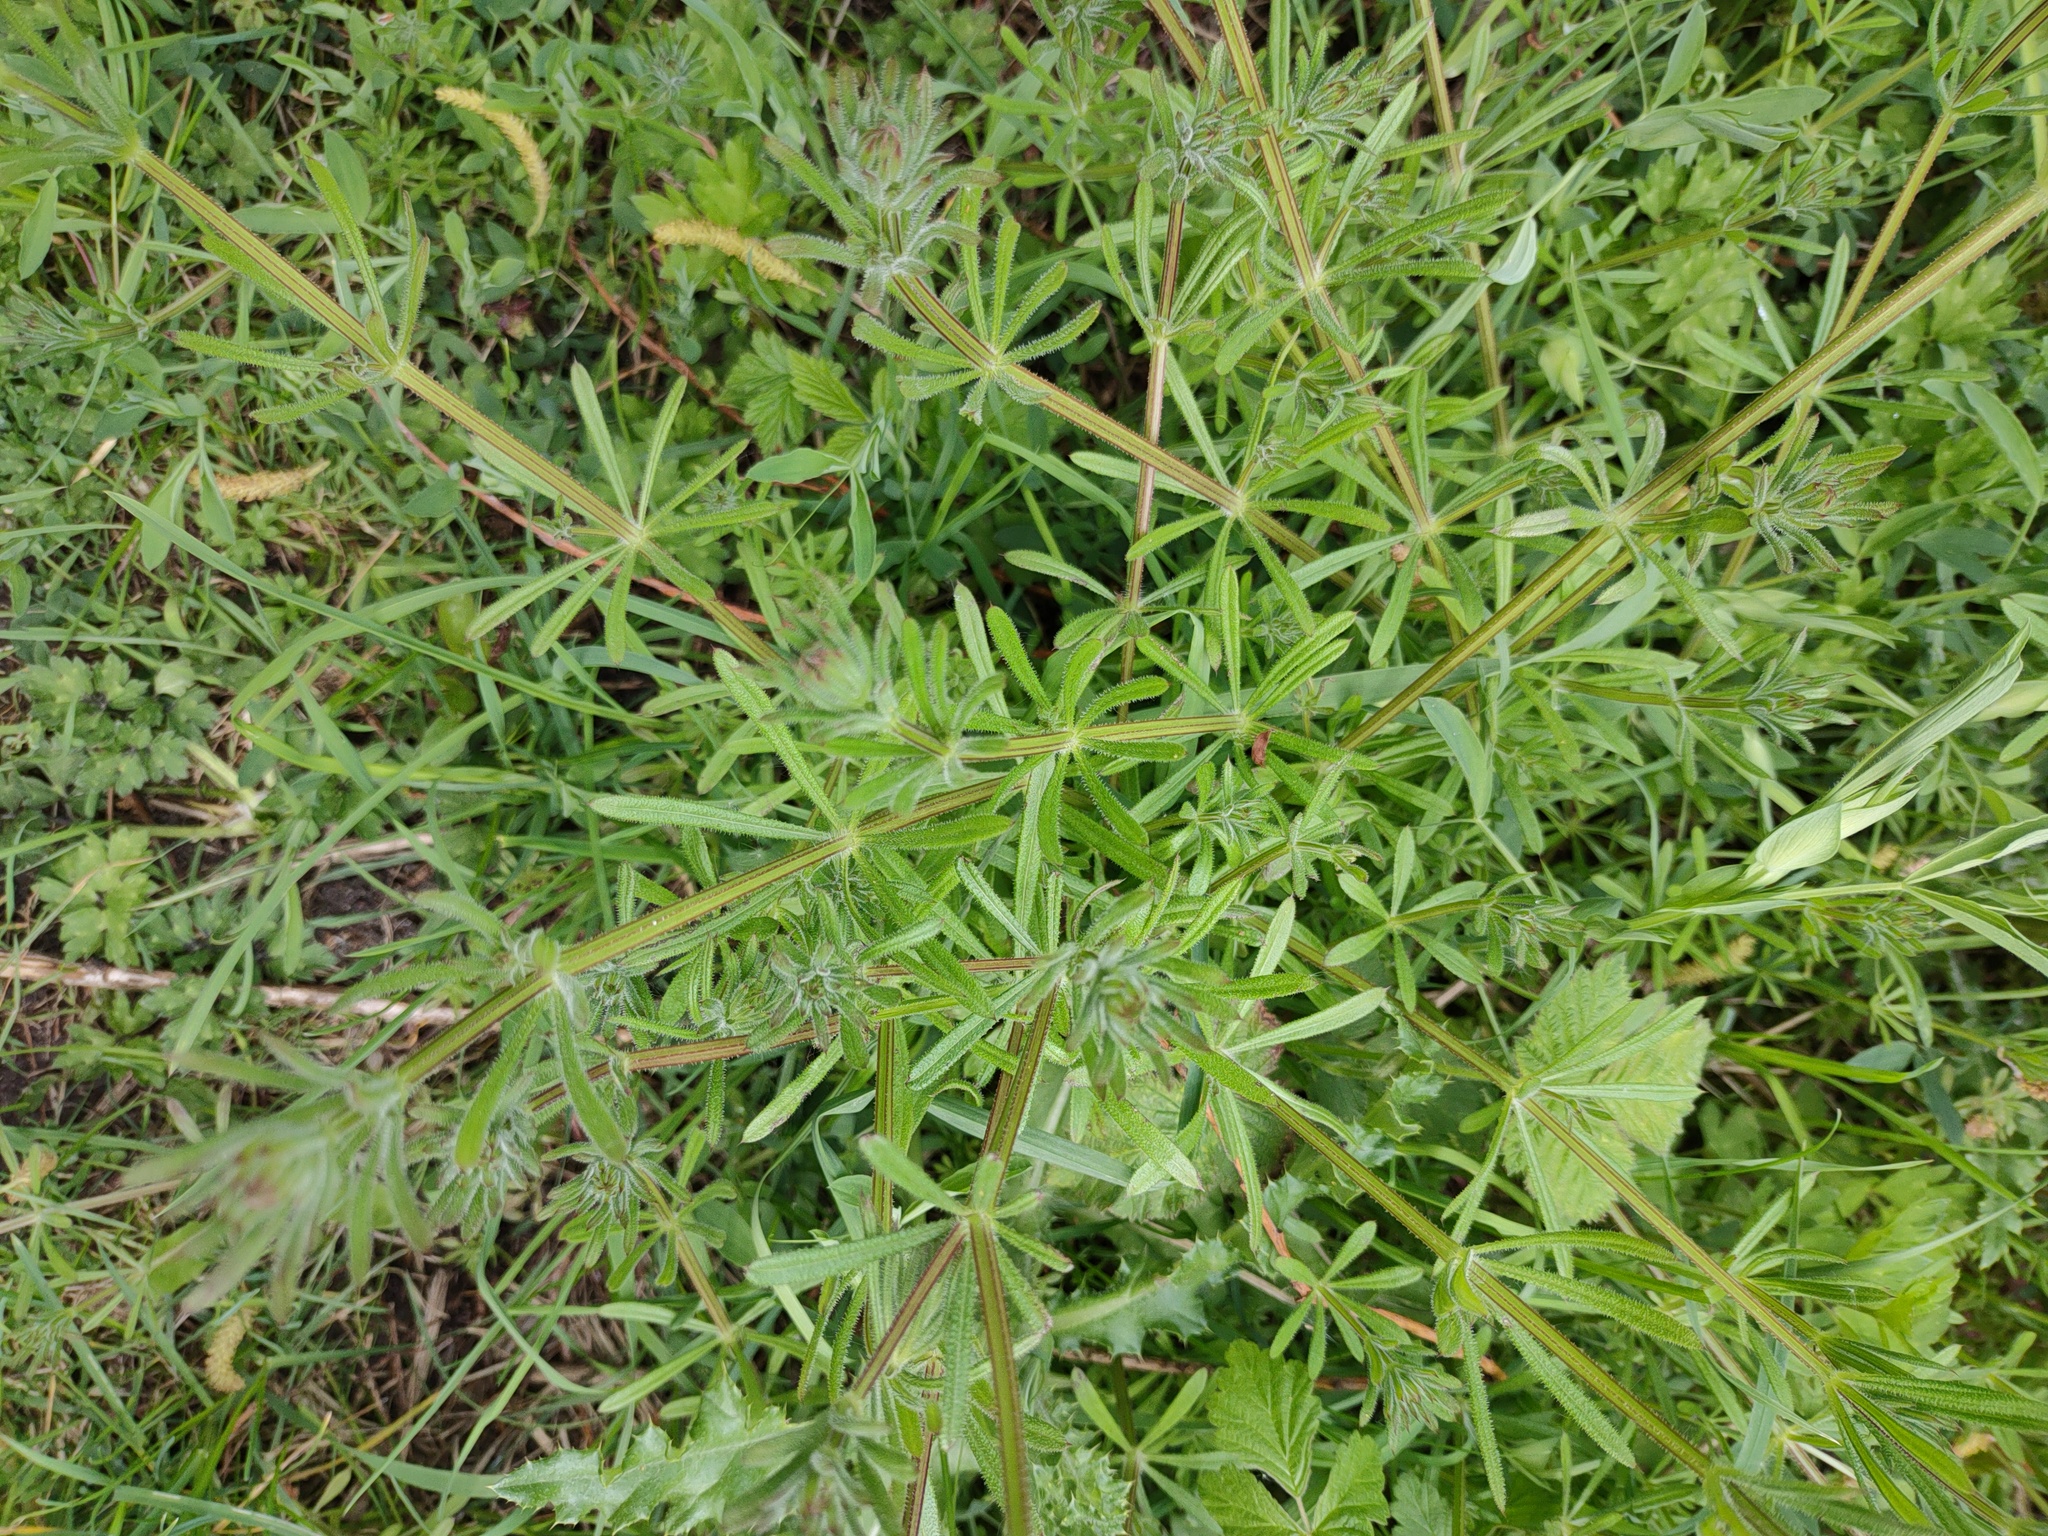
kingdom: Plantae
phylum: Tracheophyta
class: Magnoliopsida
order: Gentianales
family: Rubiaceae
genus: Galium
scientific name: Galium aparine
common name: Cleavers
